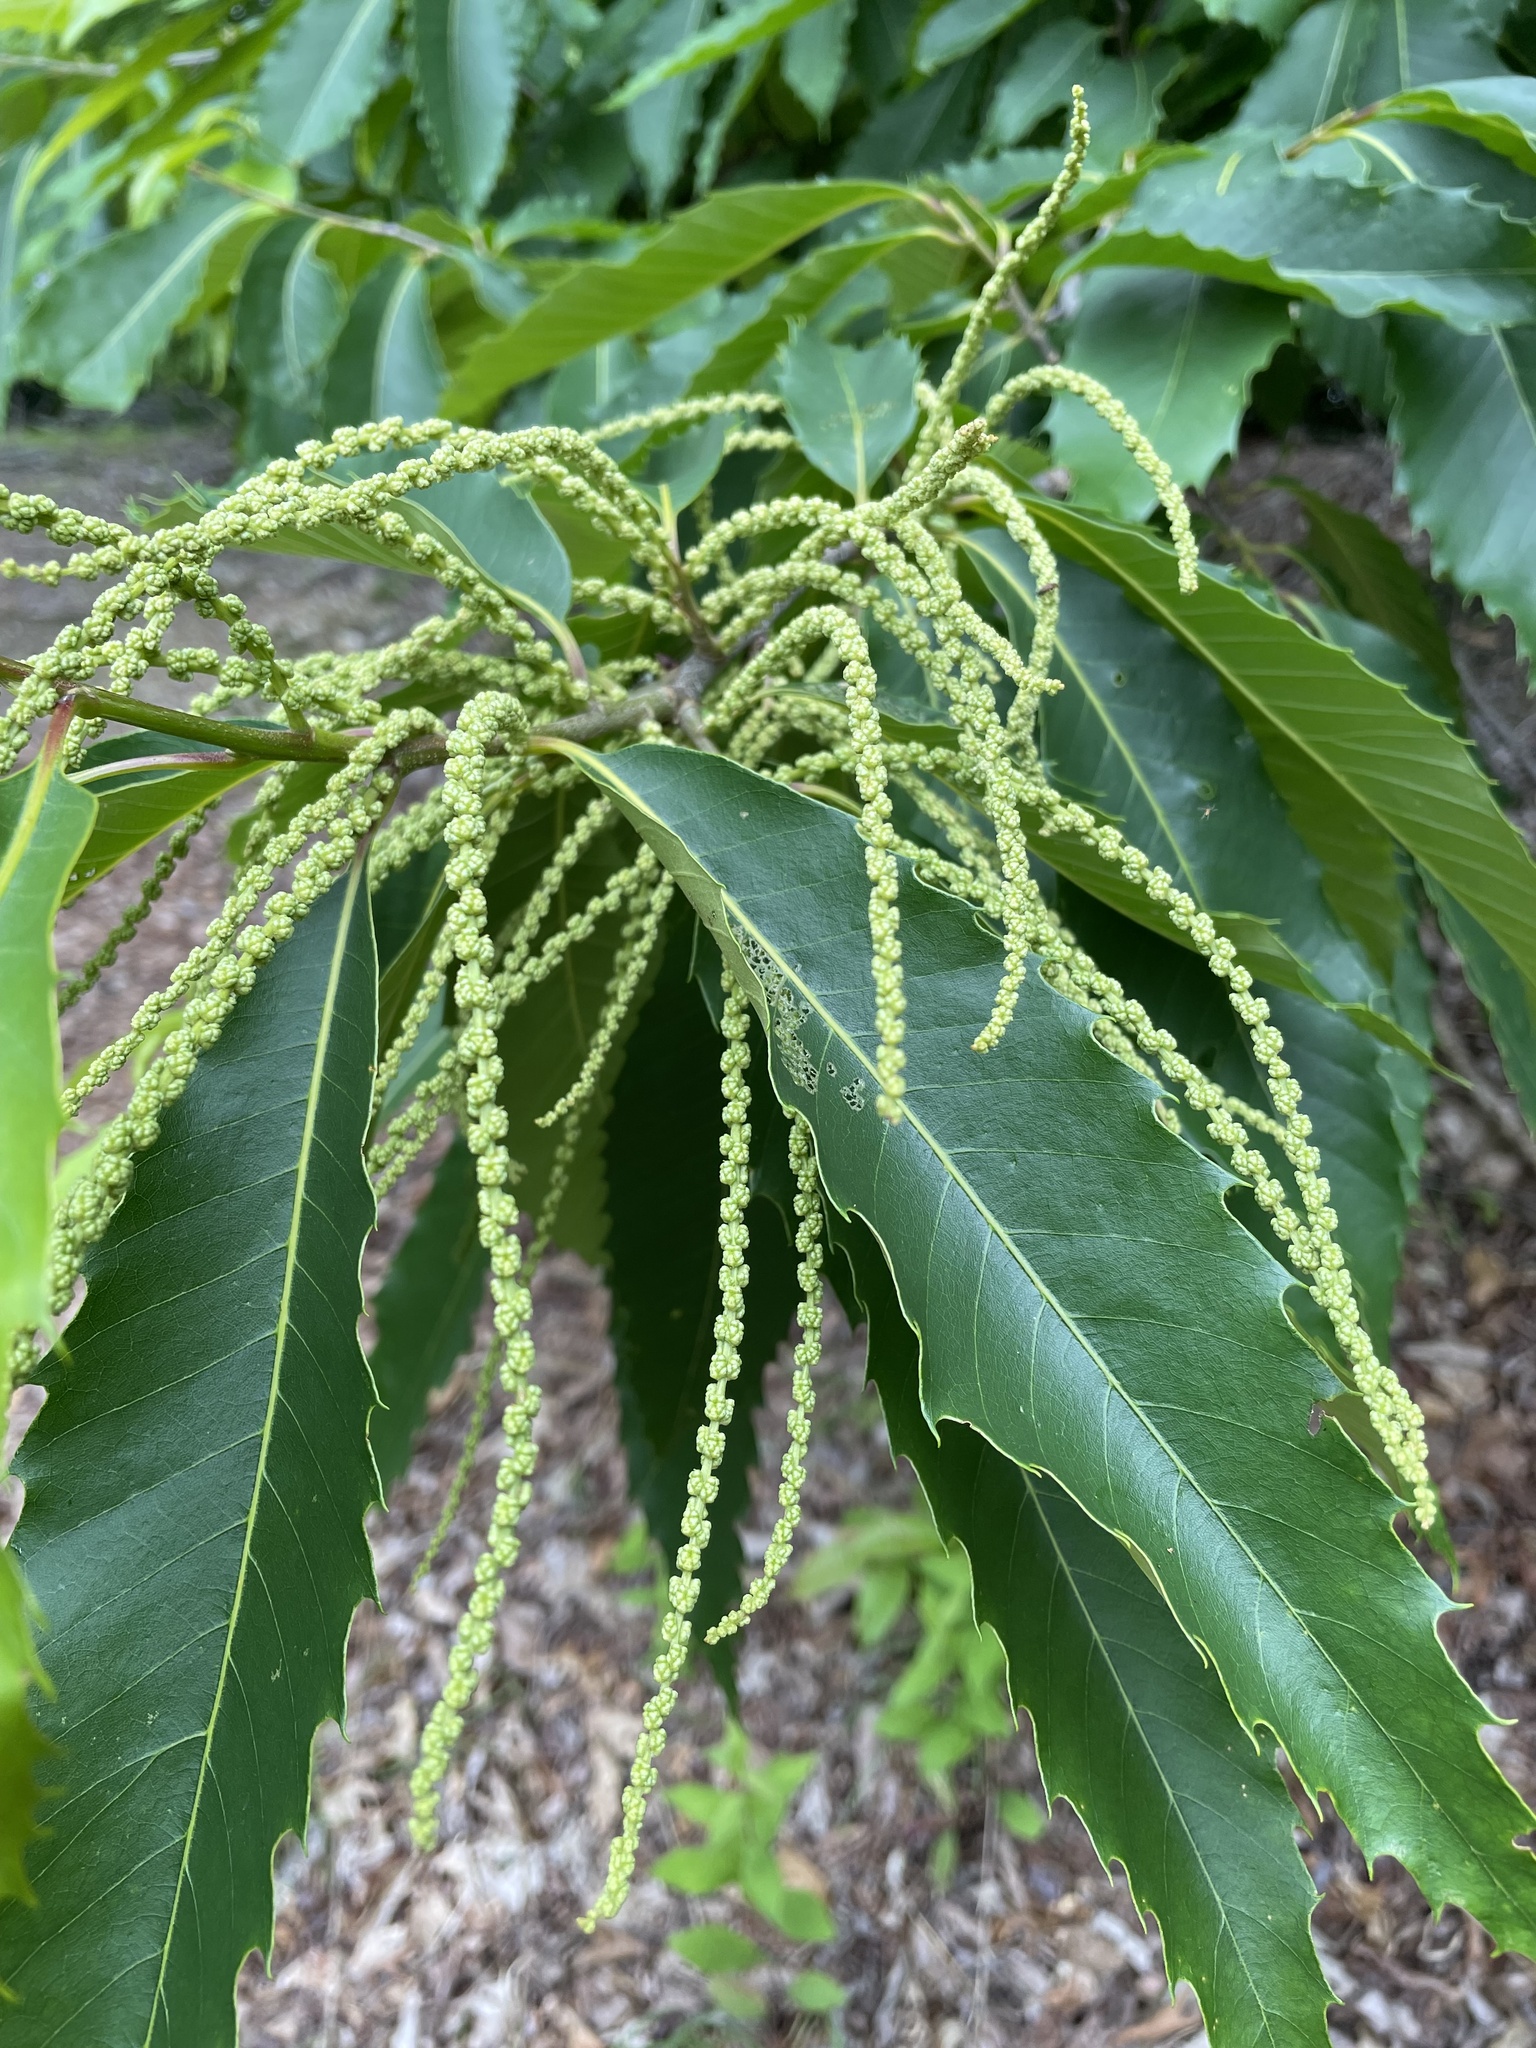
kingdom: Plantae
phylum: Tracheophyta
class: Magnoliopsida
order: Fagales
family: Fagaceae
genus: Castanea
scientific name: Castanea dentata
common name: American chestnut
